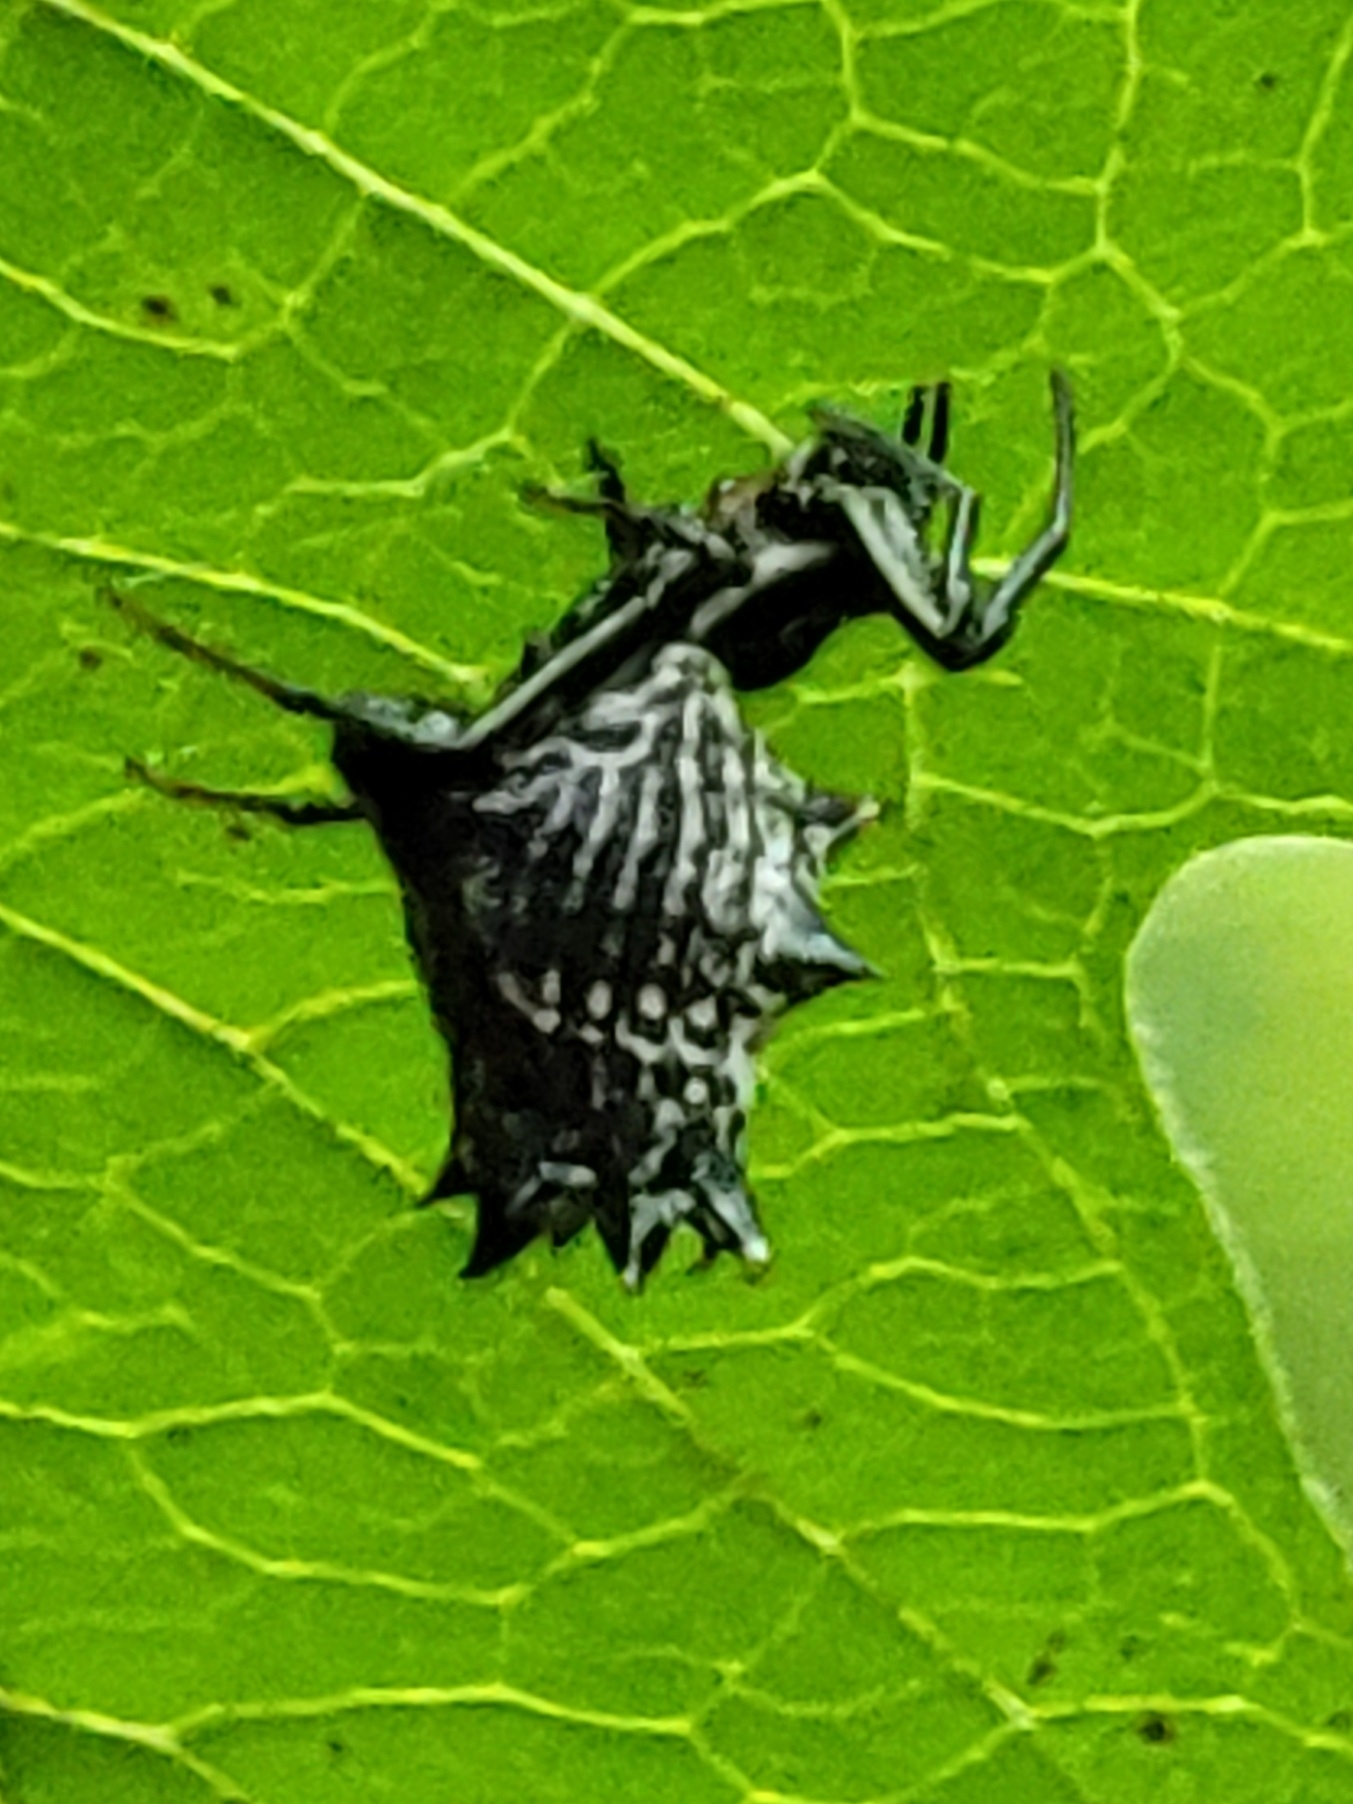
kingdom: Animalia
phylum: Arthropoda
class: Arachnida
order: Araneae
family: Araneidae
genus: Micrathena
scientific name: Micrathena gracilis
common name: Orb weavers
